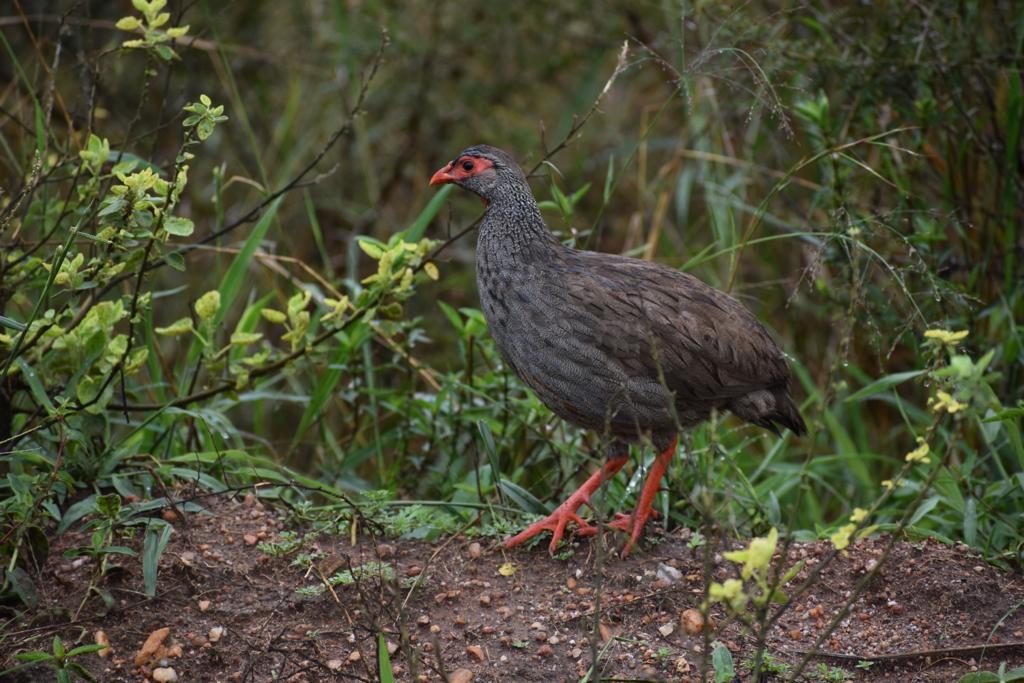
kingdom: Animalia
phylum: Chordata
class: Aves
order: Galliformes
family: Phasianidae
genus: Pternistis
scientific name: Pternistis afer
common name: Red-necked spurfowl
